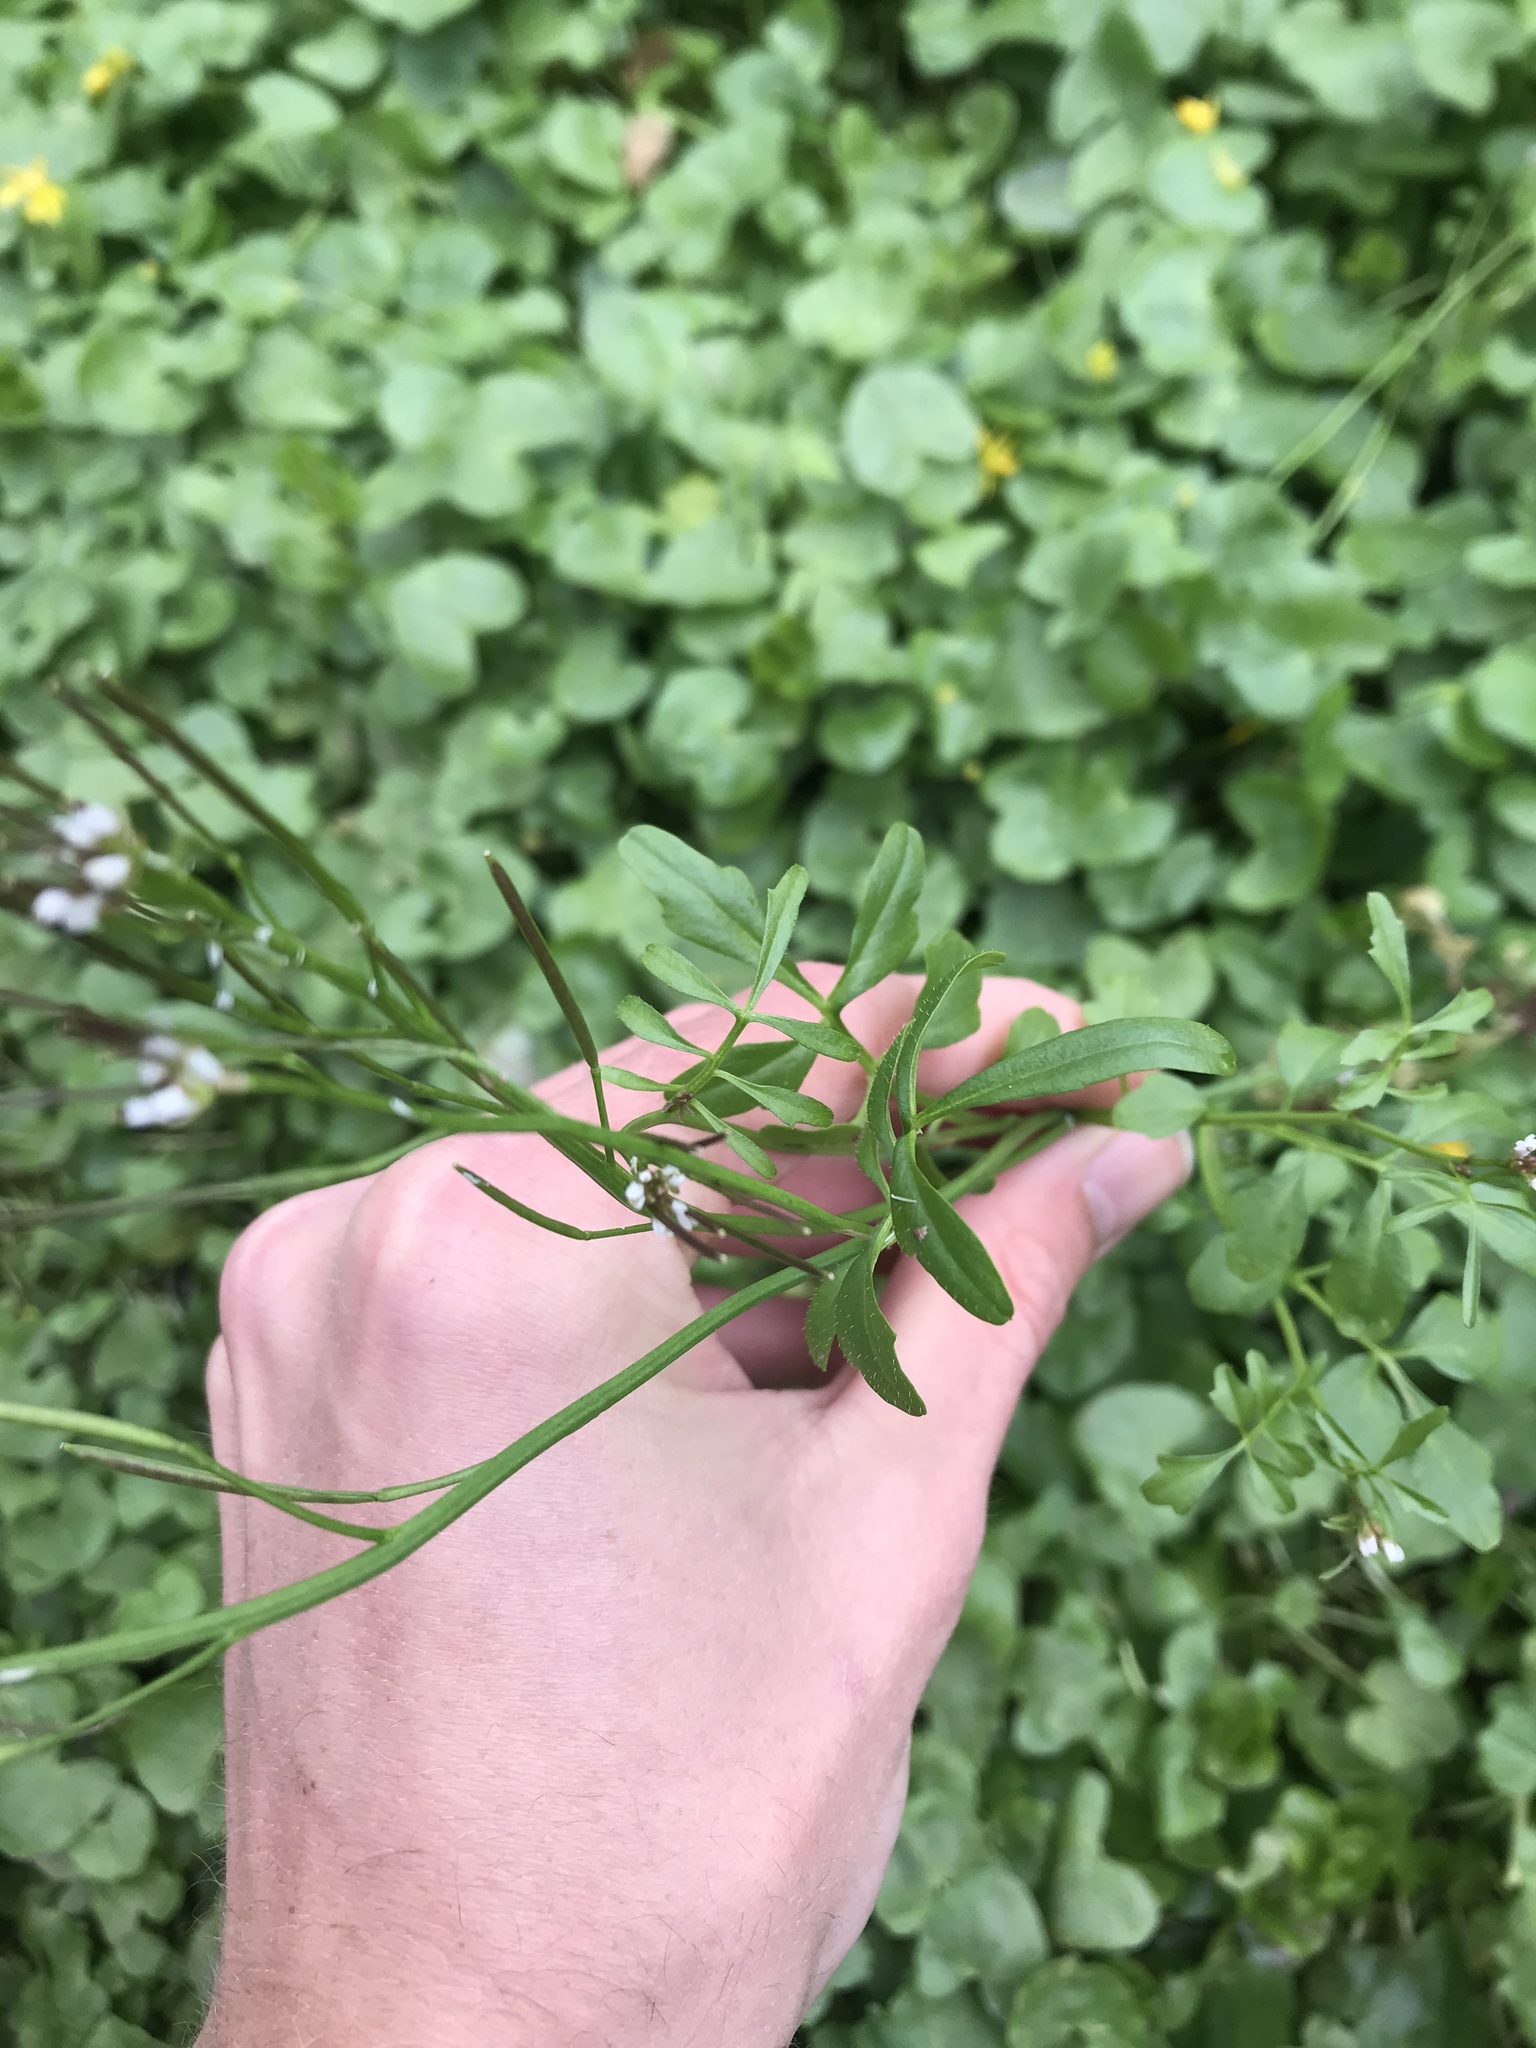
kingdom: Plantae
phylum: Tracheophyta
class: Magnoliopsida
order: Brassicales
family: Brassicaceae
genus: Cardamine
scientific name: Cardamine hirsuta
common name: Hairy bittercress
